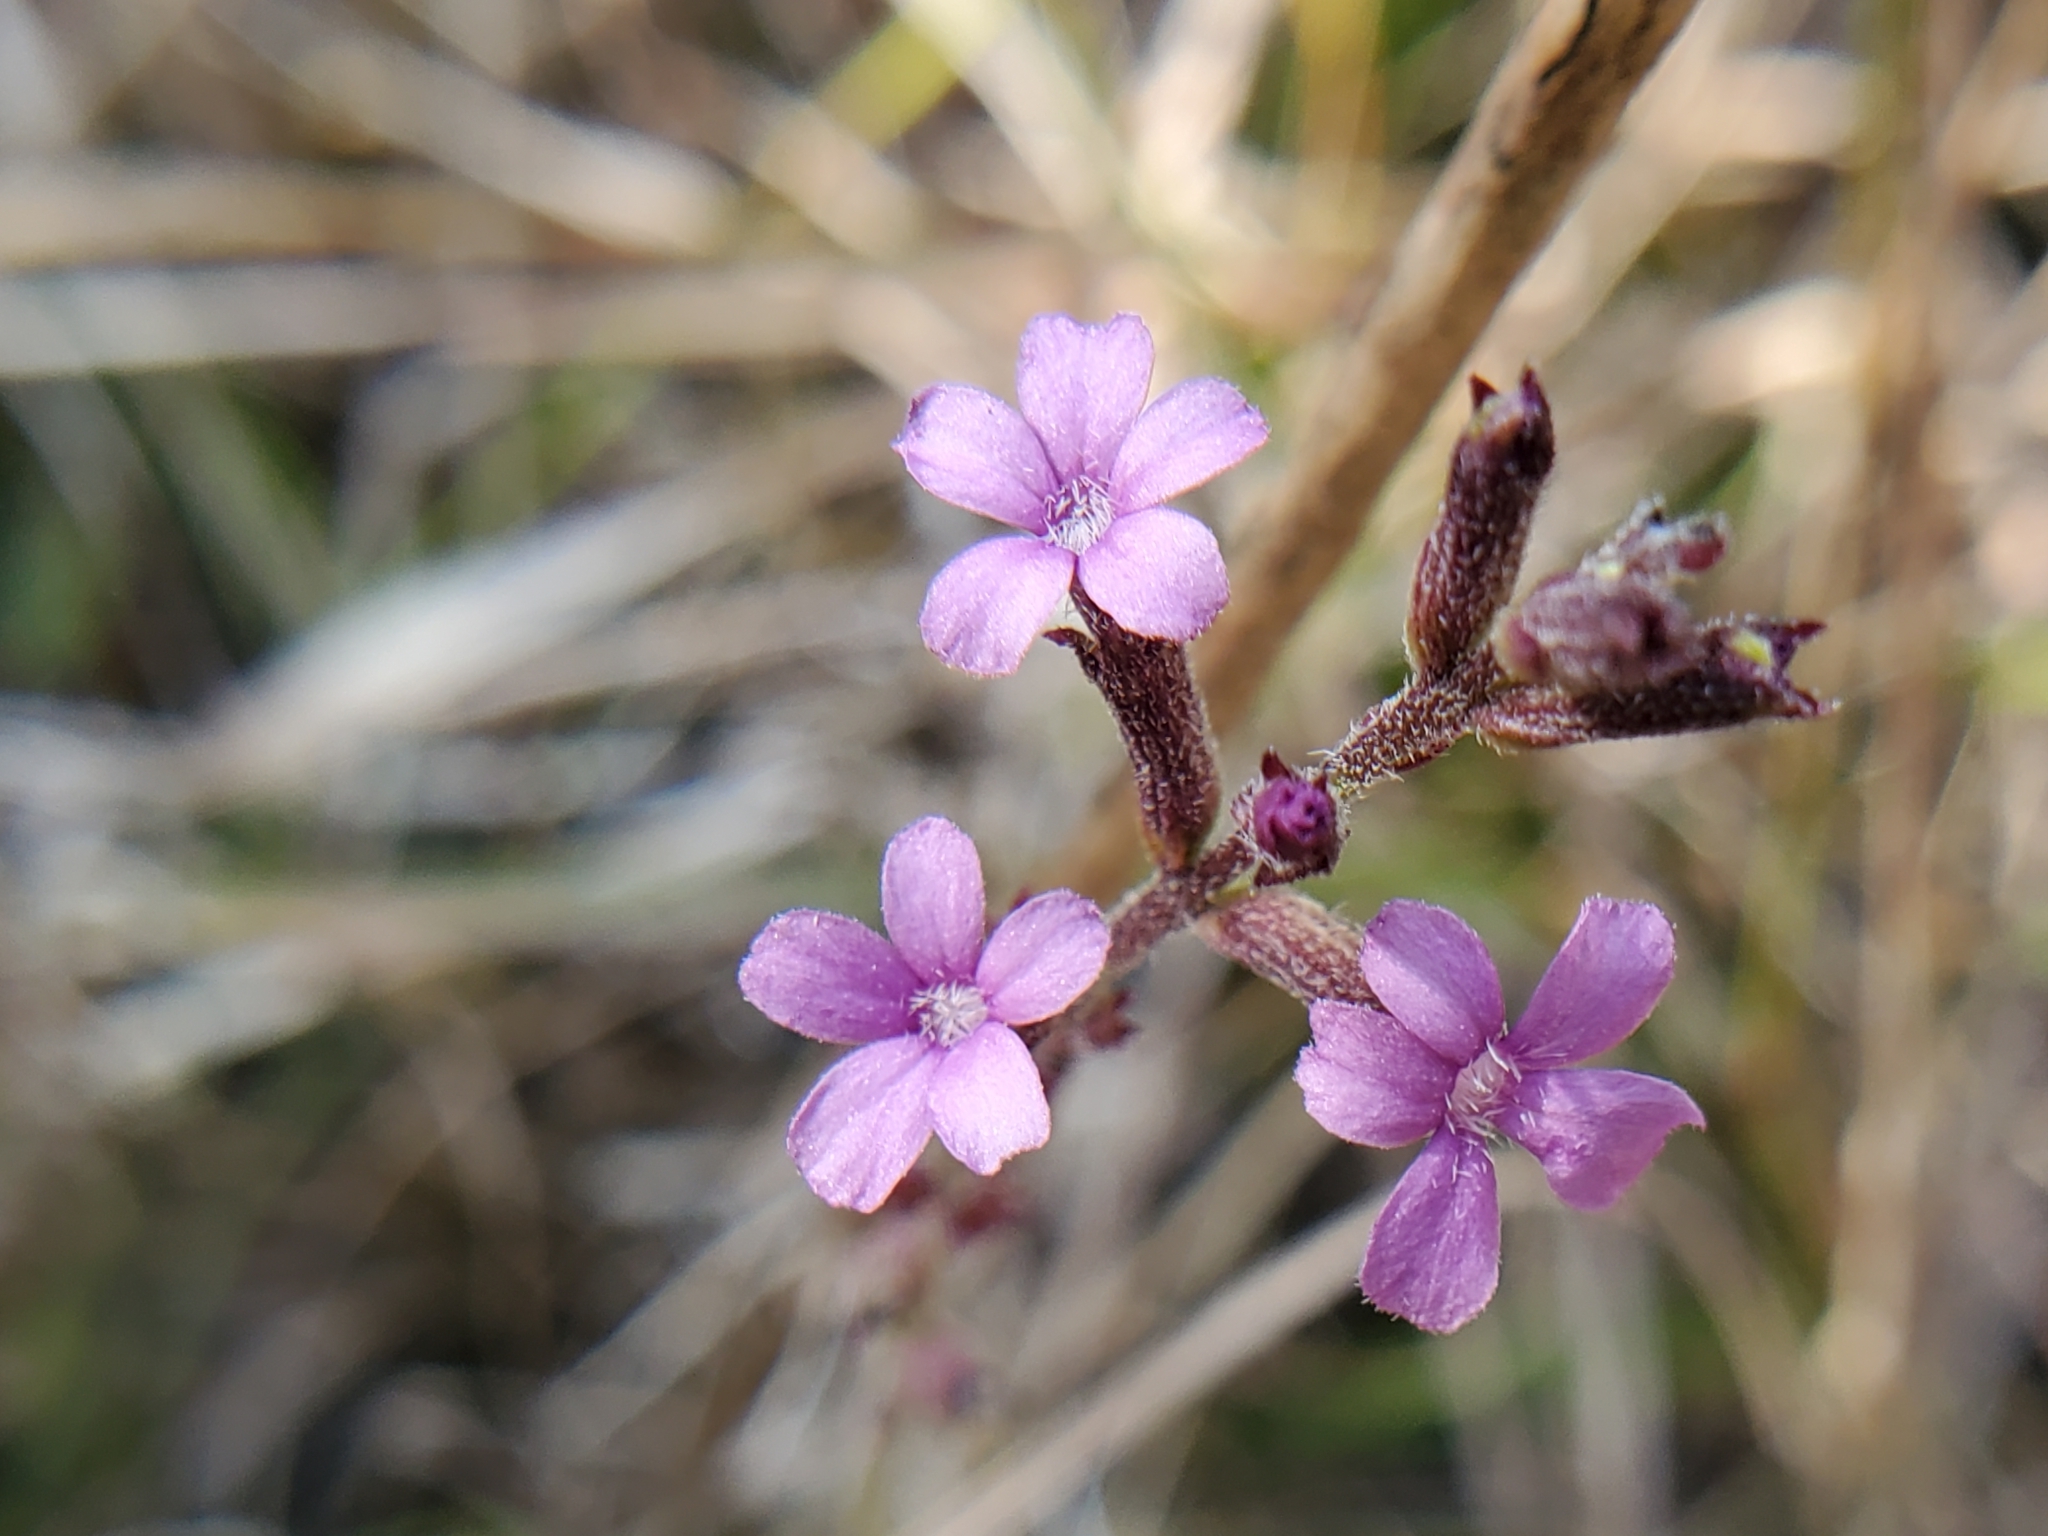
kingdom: Plantae
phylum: Tracheophyta
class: Magnoliopsida
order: Lamiales
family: Orobanchaceae
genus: Buchnera
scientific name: Buchnera floridana
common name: Florida bluehearts
